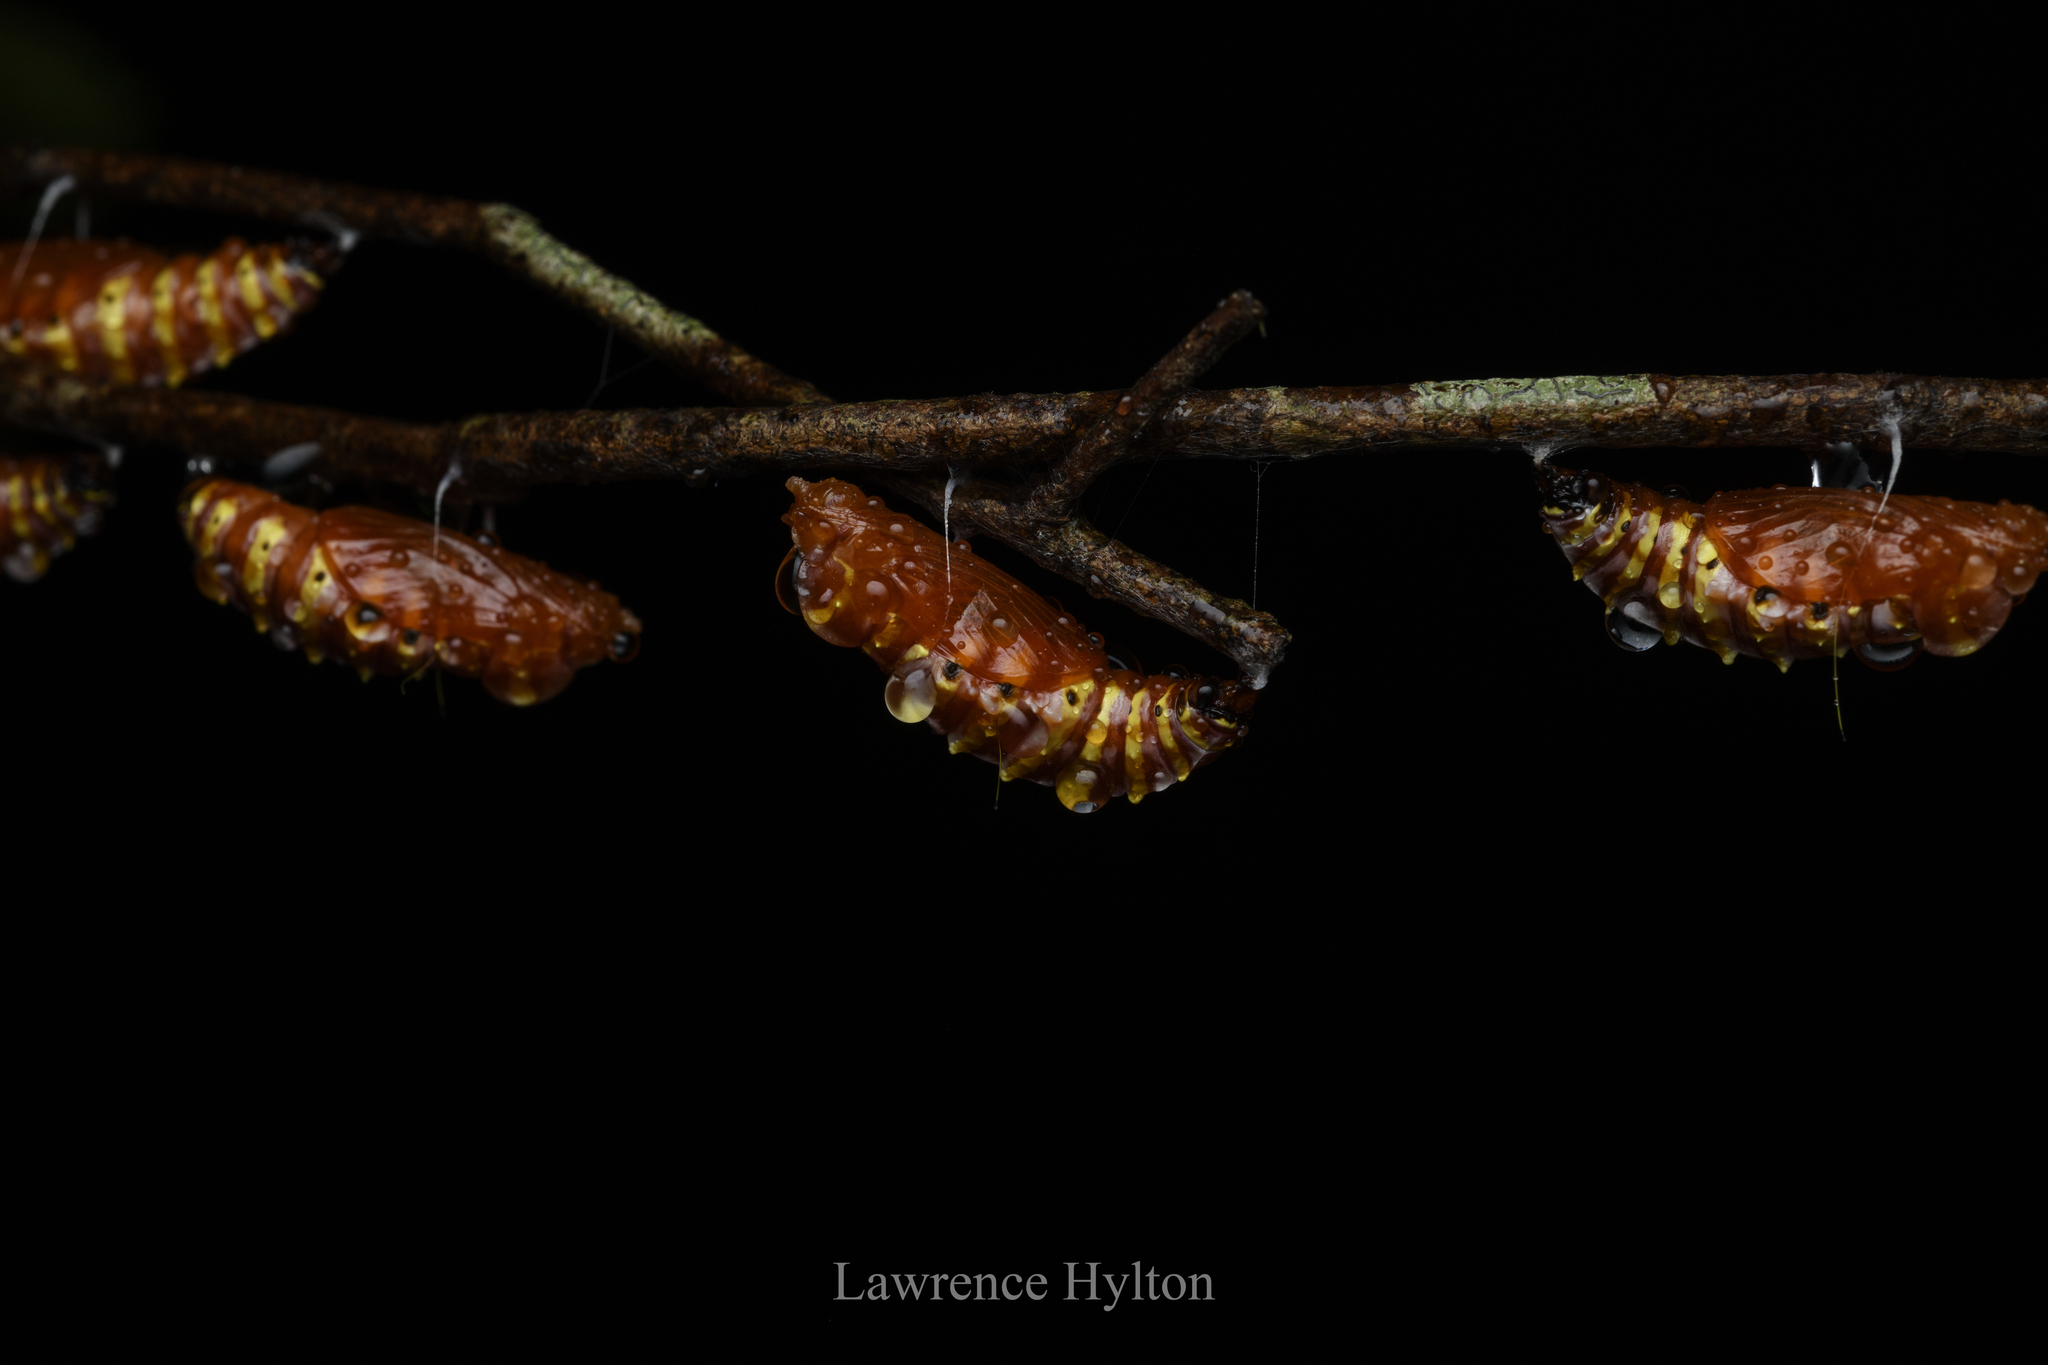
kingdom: Animalia
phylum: Arthropoda
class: Insecta
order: Lepidoptera
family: Pieridae
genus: Delias
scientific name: Delias pasithoe
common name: Red-base jezebel
